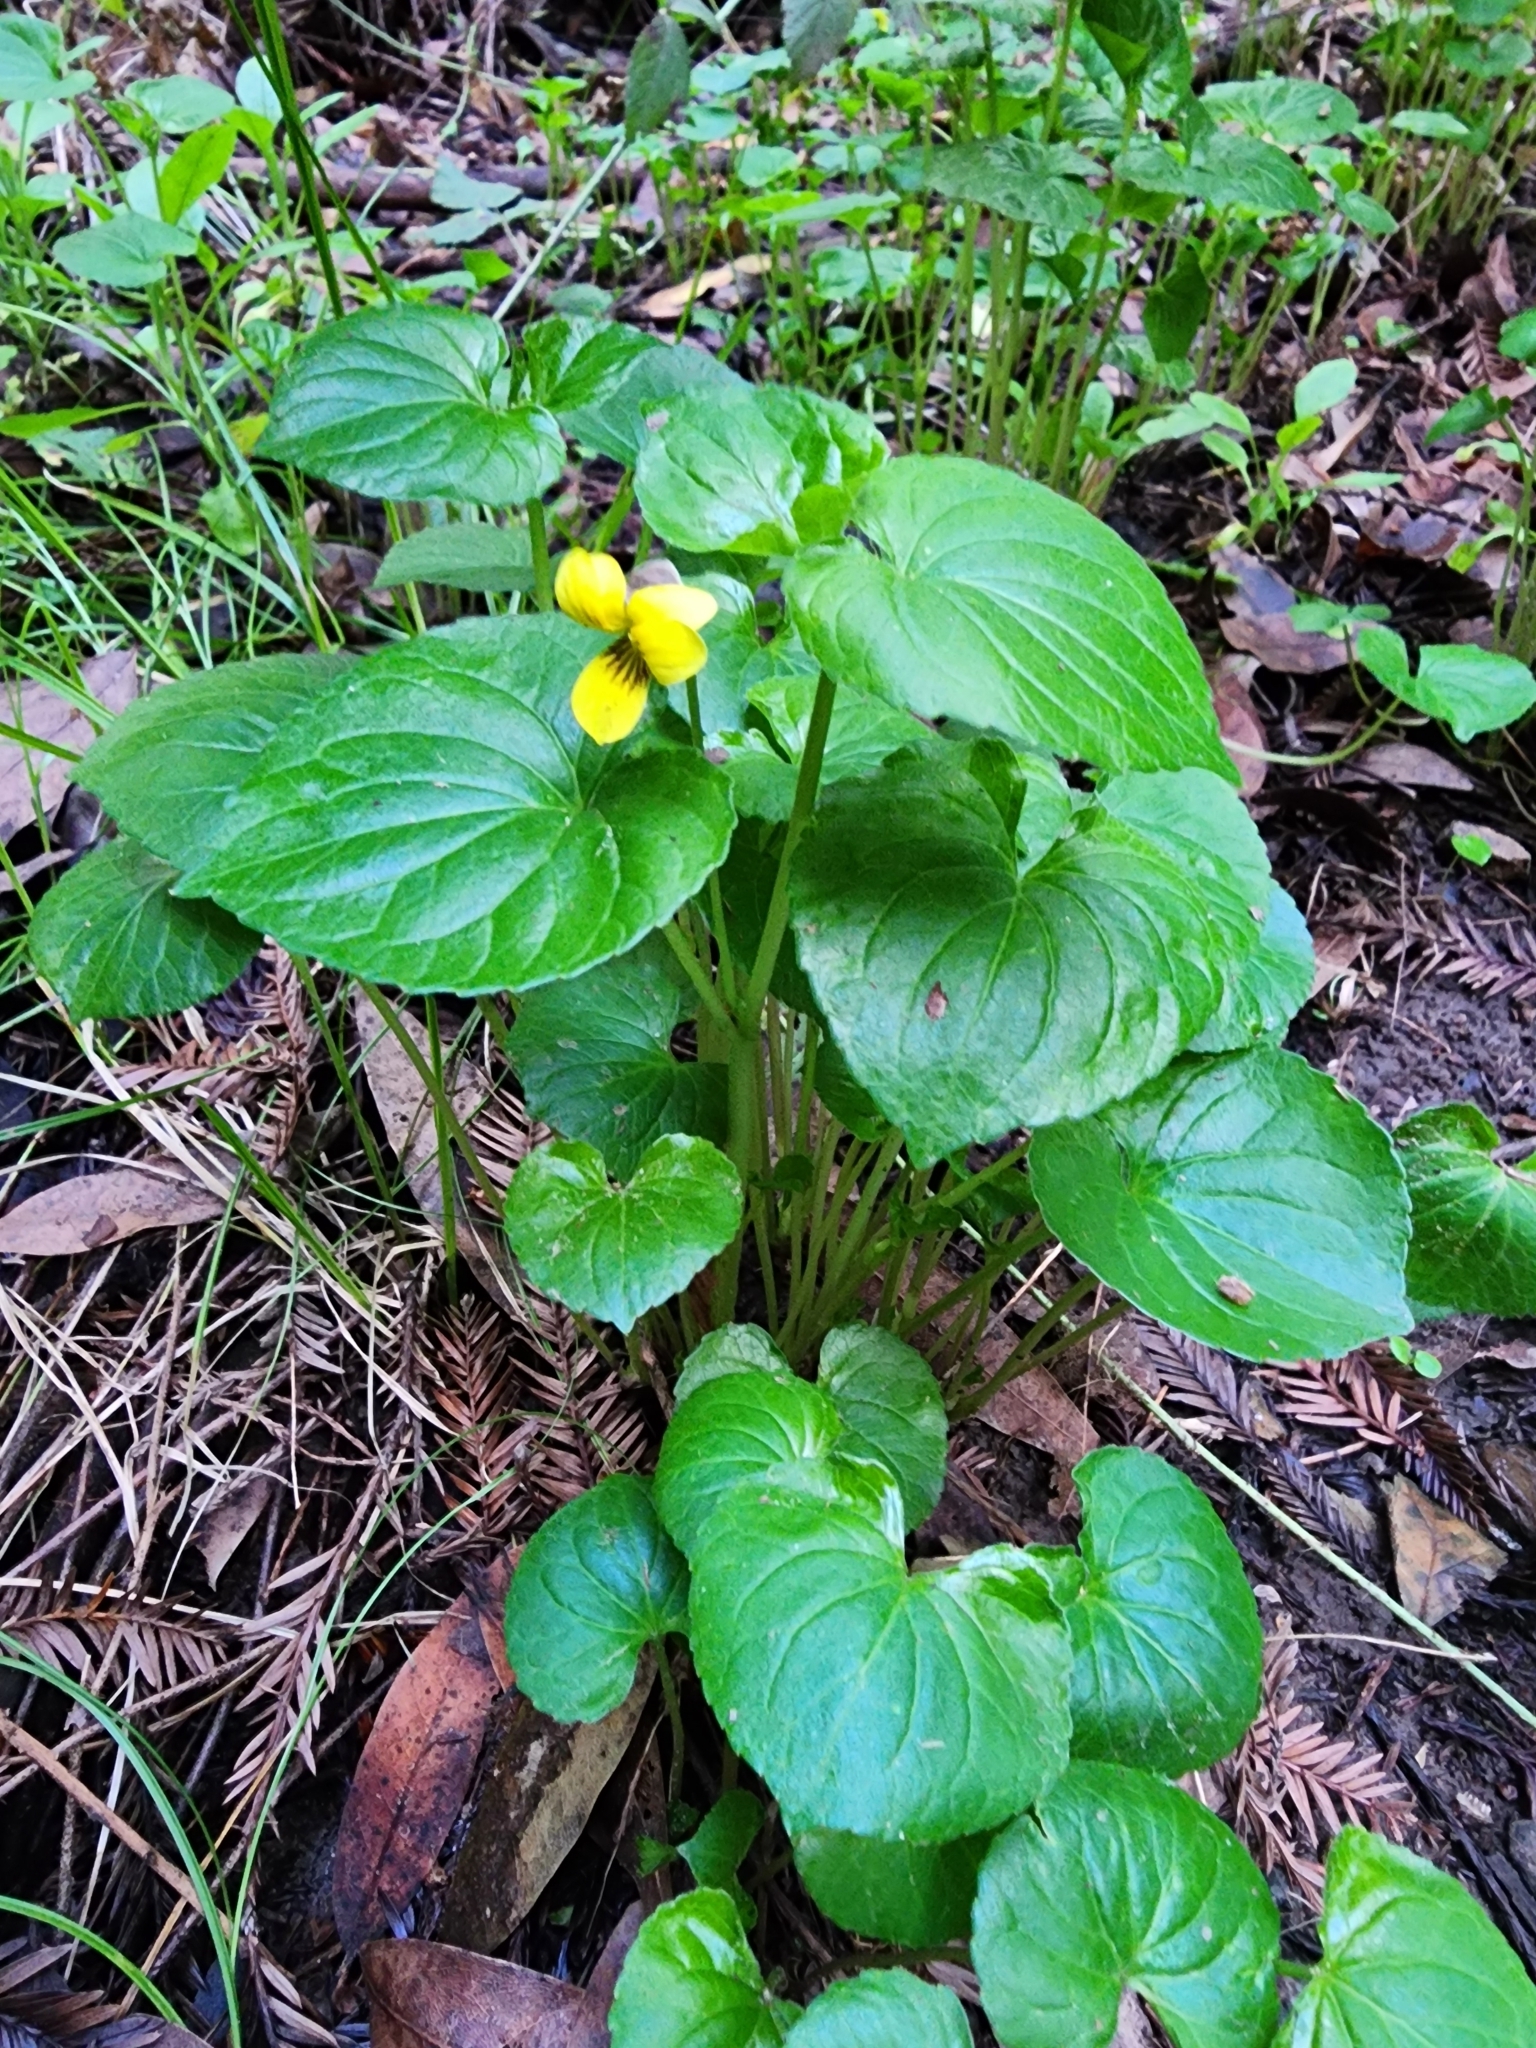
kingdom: Plantae
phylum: Tracheophyta
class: Magnoliopsida
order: Malpighiales
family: Violaceae
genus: Viola
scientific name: Viola glabella
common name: Stream violet
